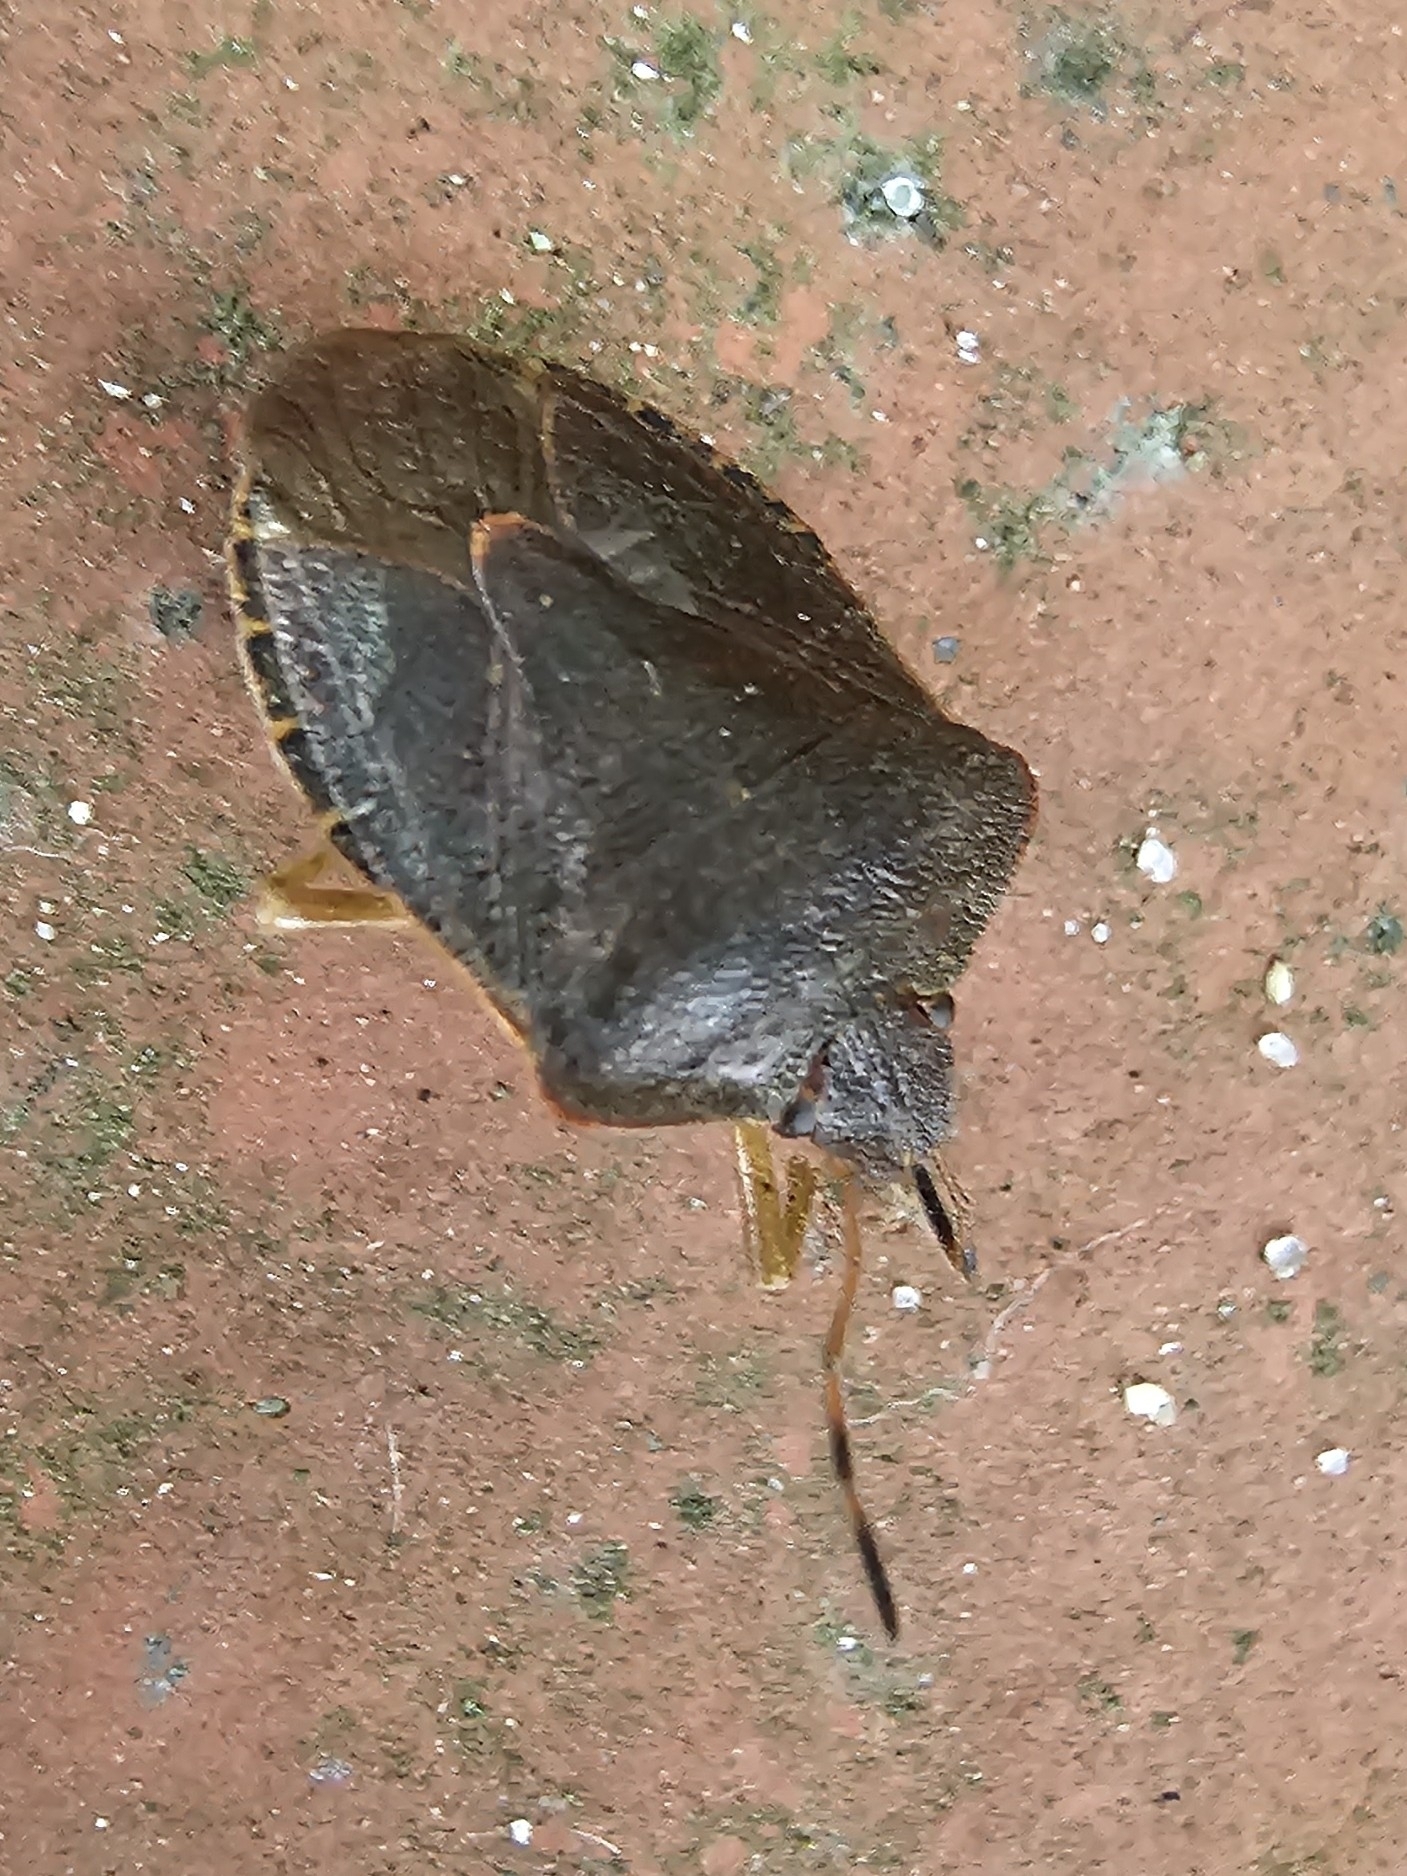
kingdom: Animalia
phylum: Arthropoda
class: Insecta
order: Hemiptera
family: Pentatomidae
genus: Palomena
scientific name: Palomena prasina
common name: Green shieldbug
